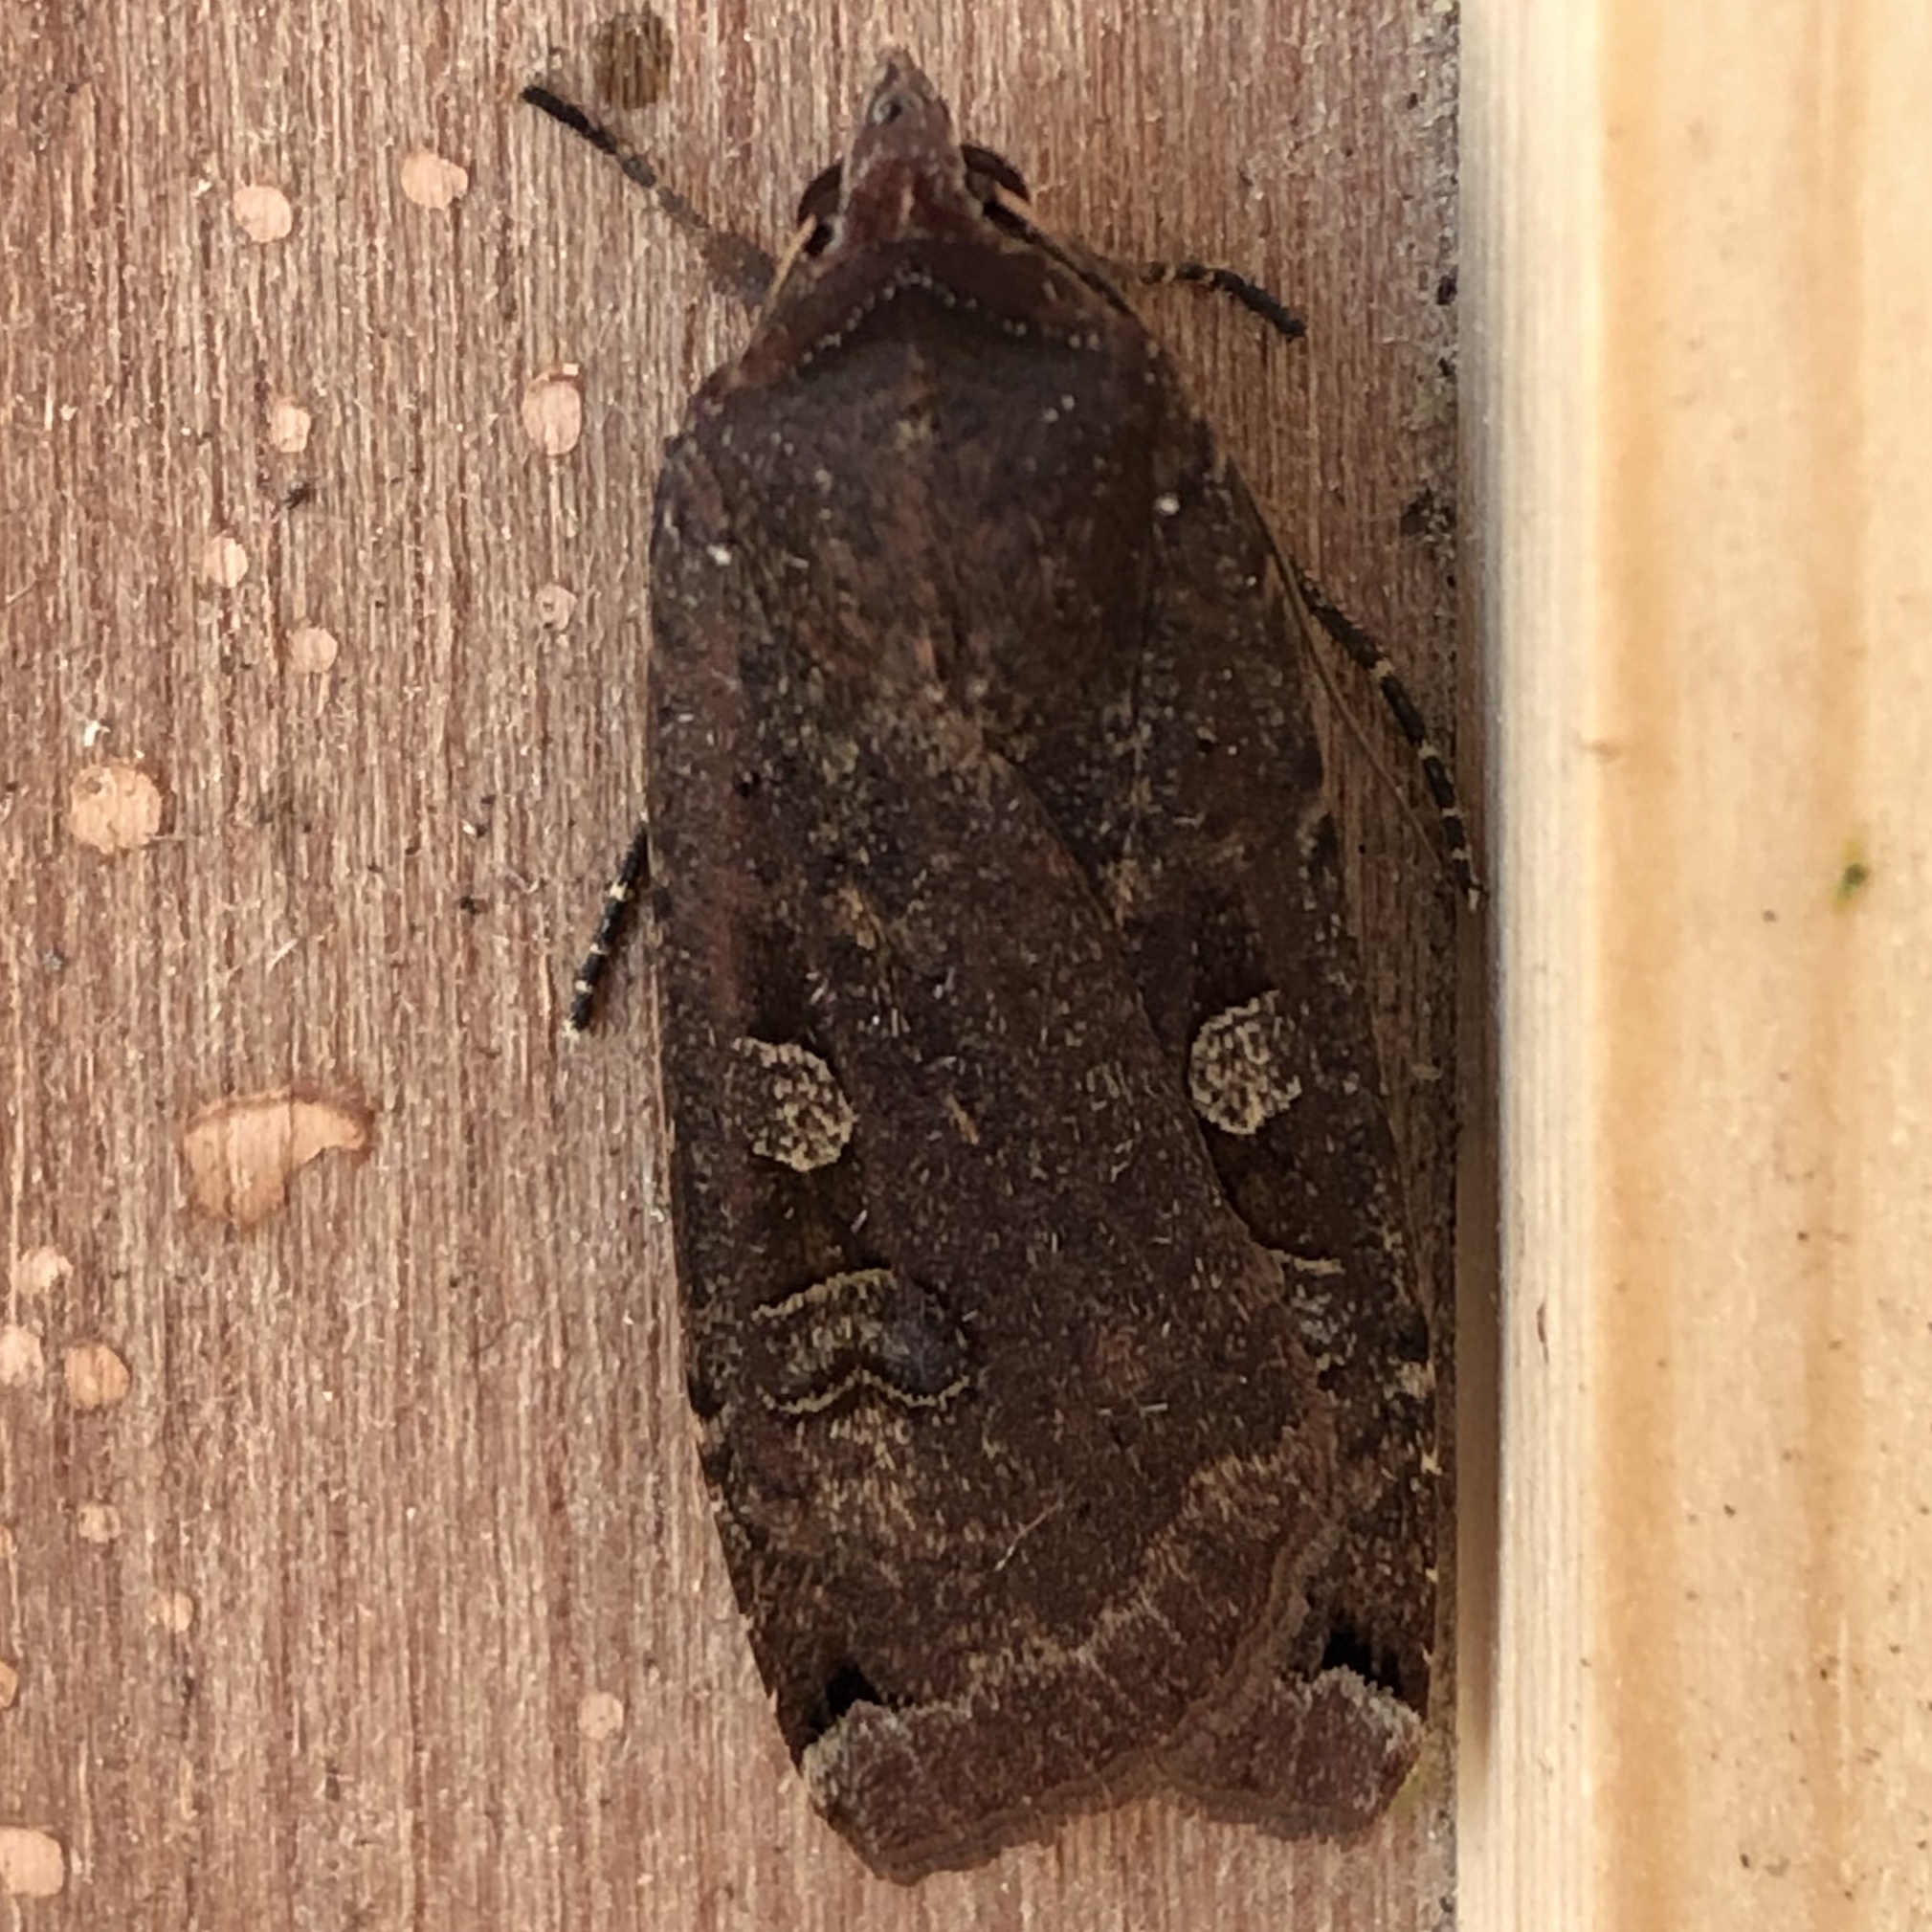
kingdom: Animalia
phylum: Arthropoda
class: Insecta
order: Lepidoptera
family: Noctuidae
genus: Noctua
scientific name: Noctua pronuba
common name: Large yellow underwing
